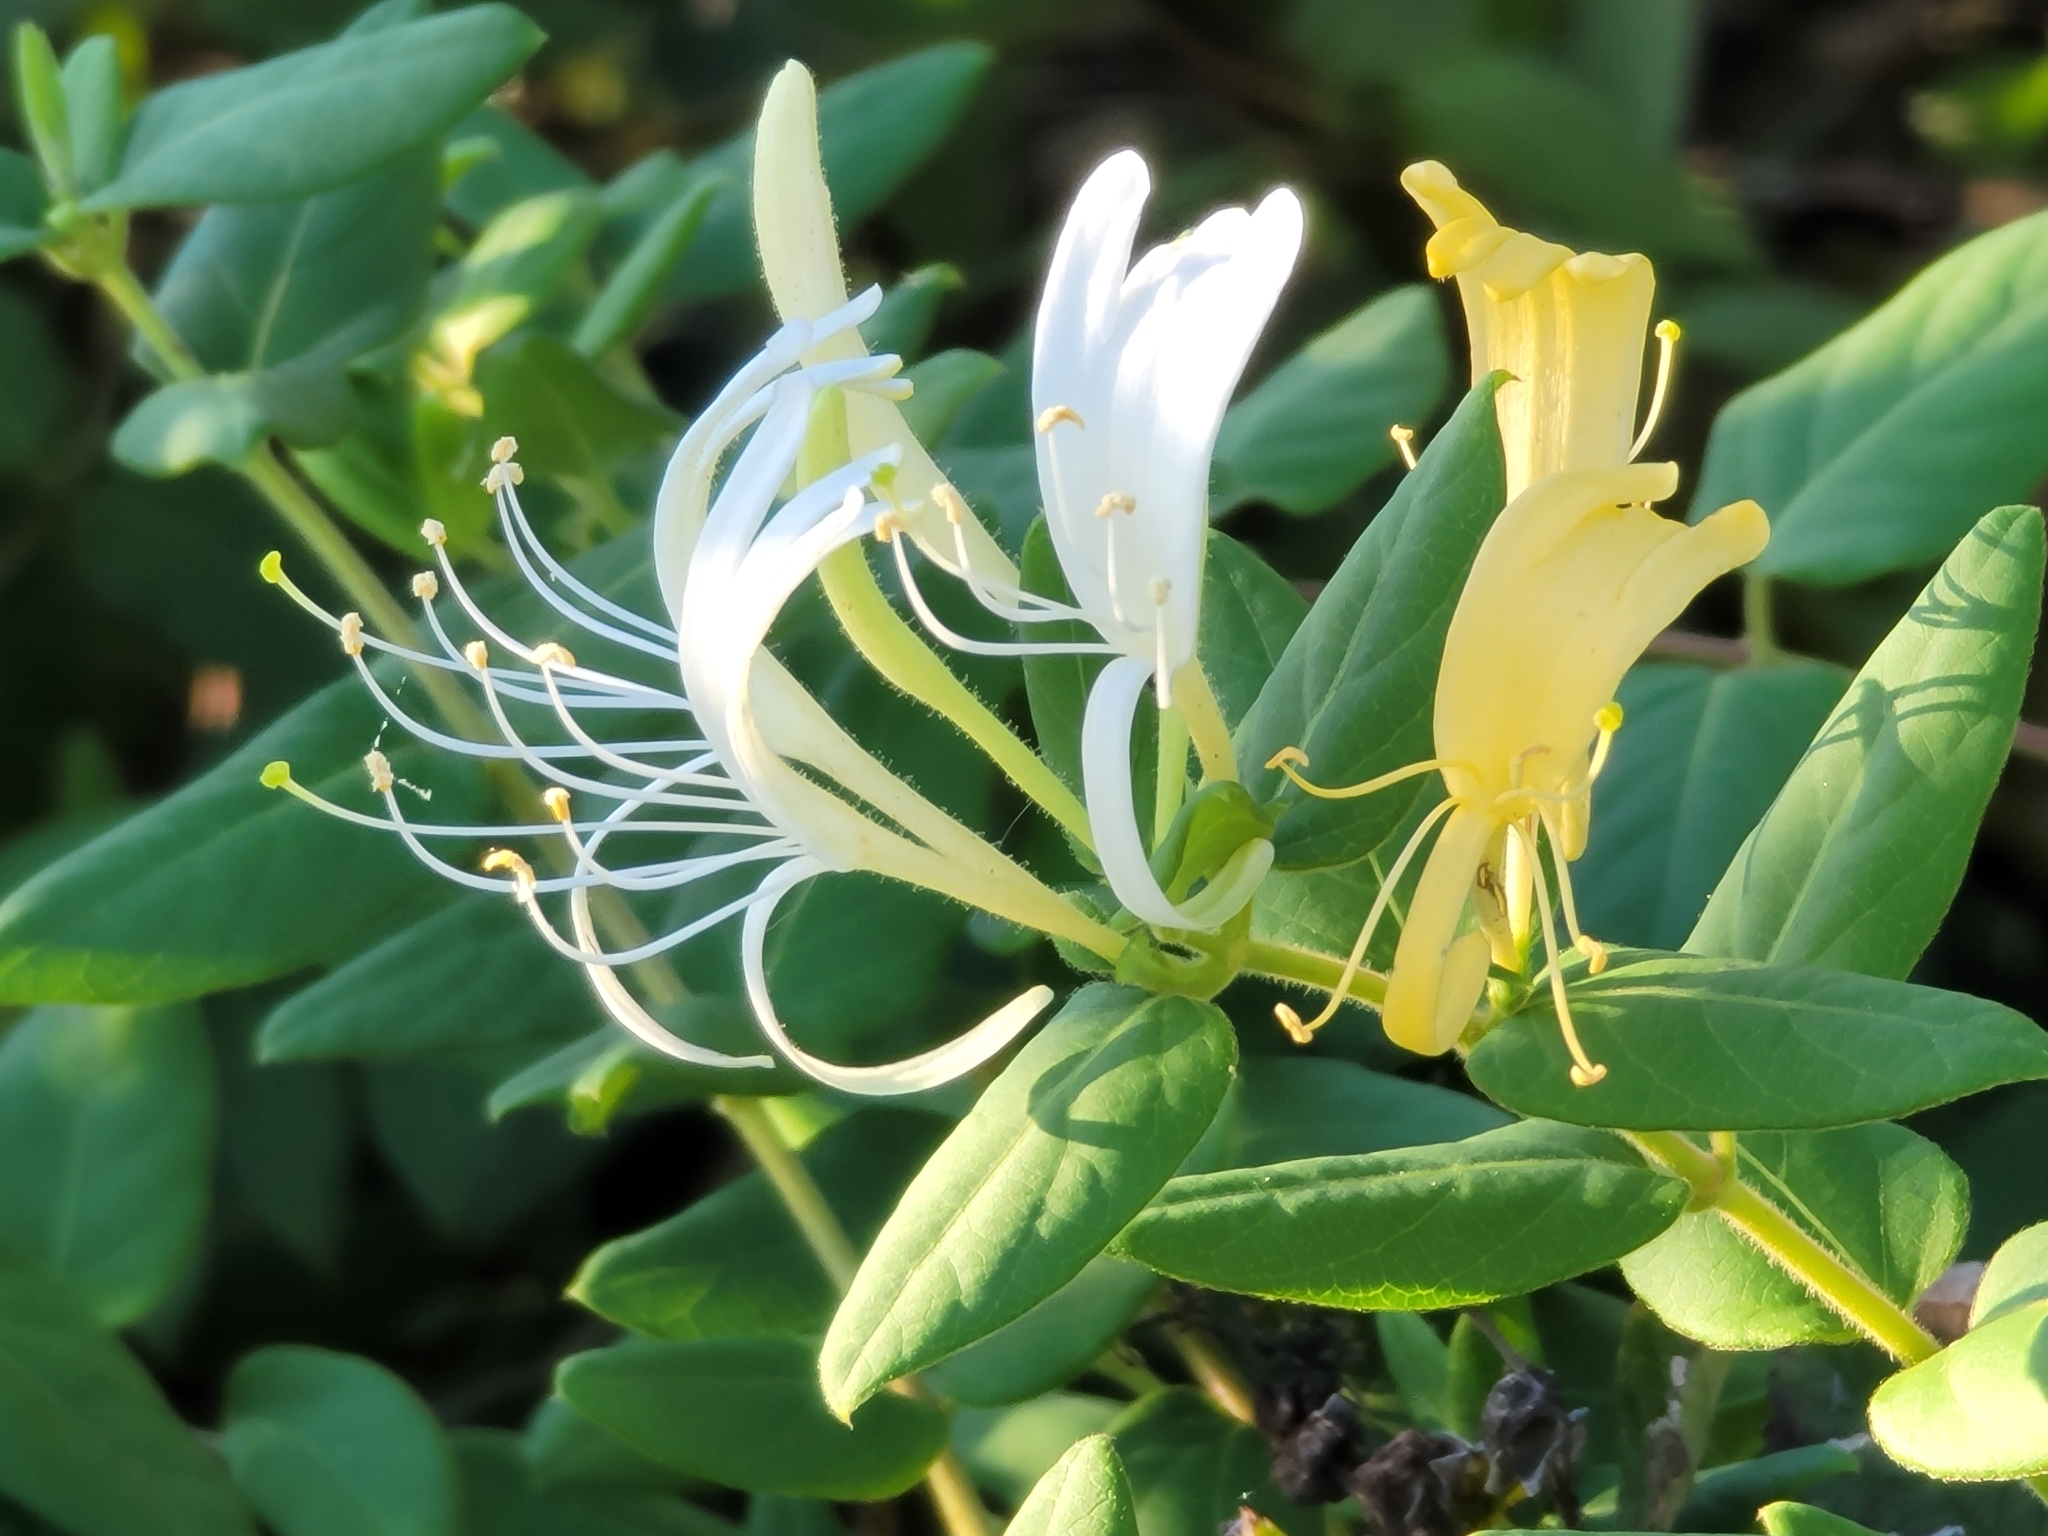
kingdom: Plantae
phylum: Tracheophyta
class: Magnoliopsida
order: Dipsacales
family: Caprifoliaceae
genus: Lonicera
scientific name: Lonicera japonica
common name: Japanese honeysuckle
